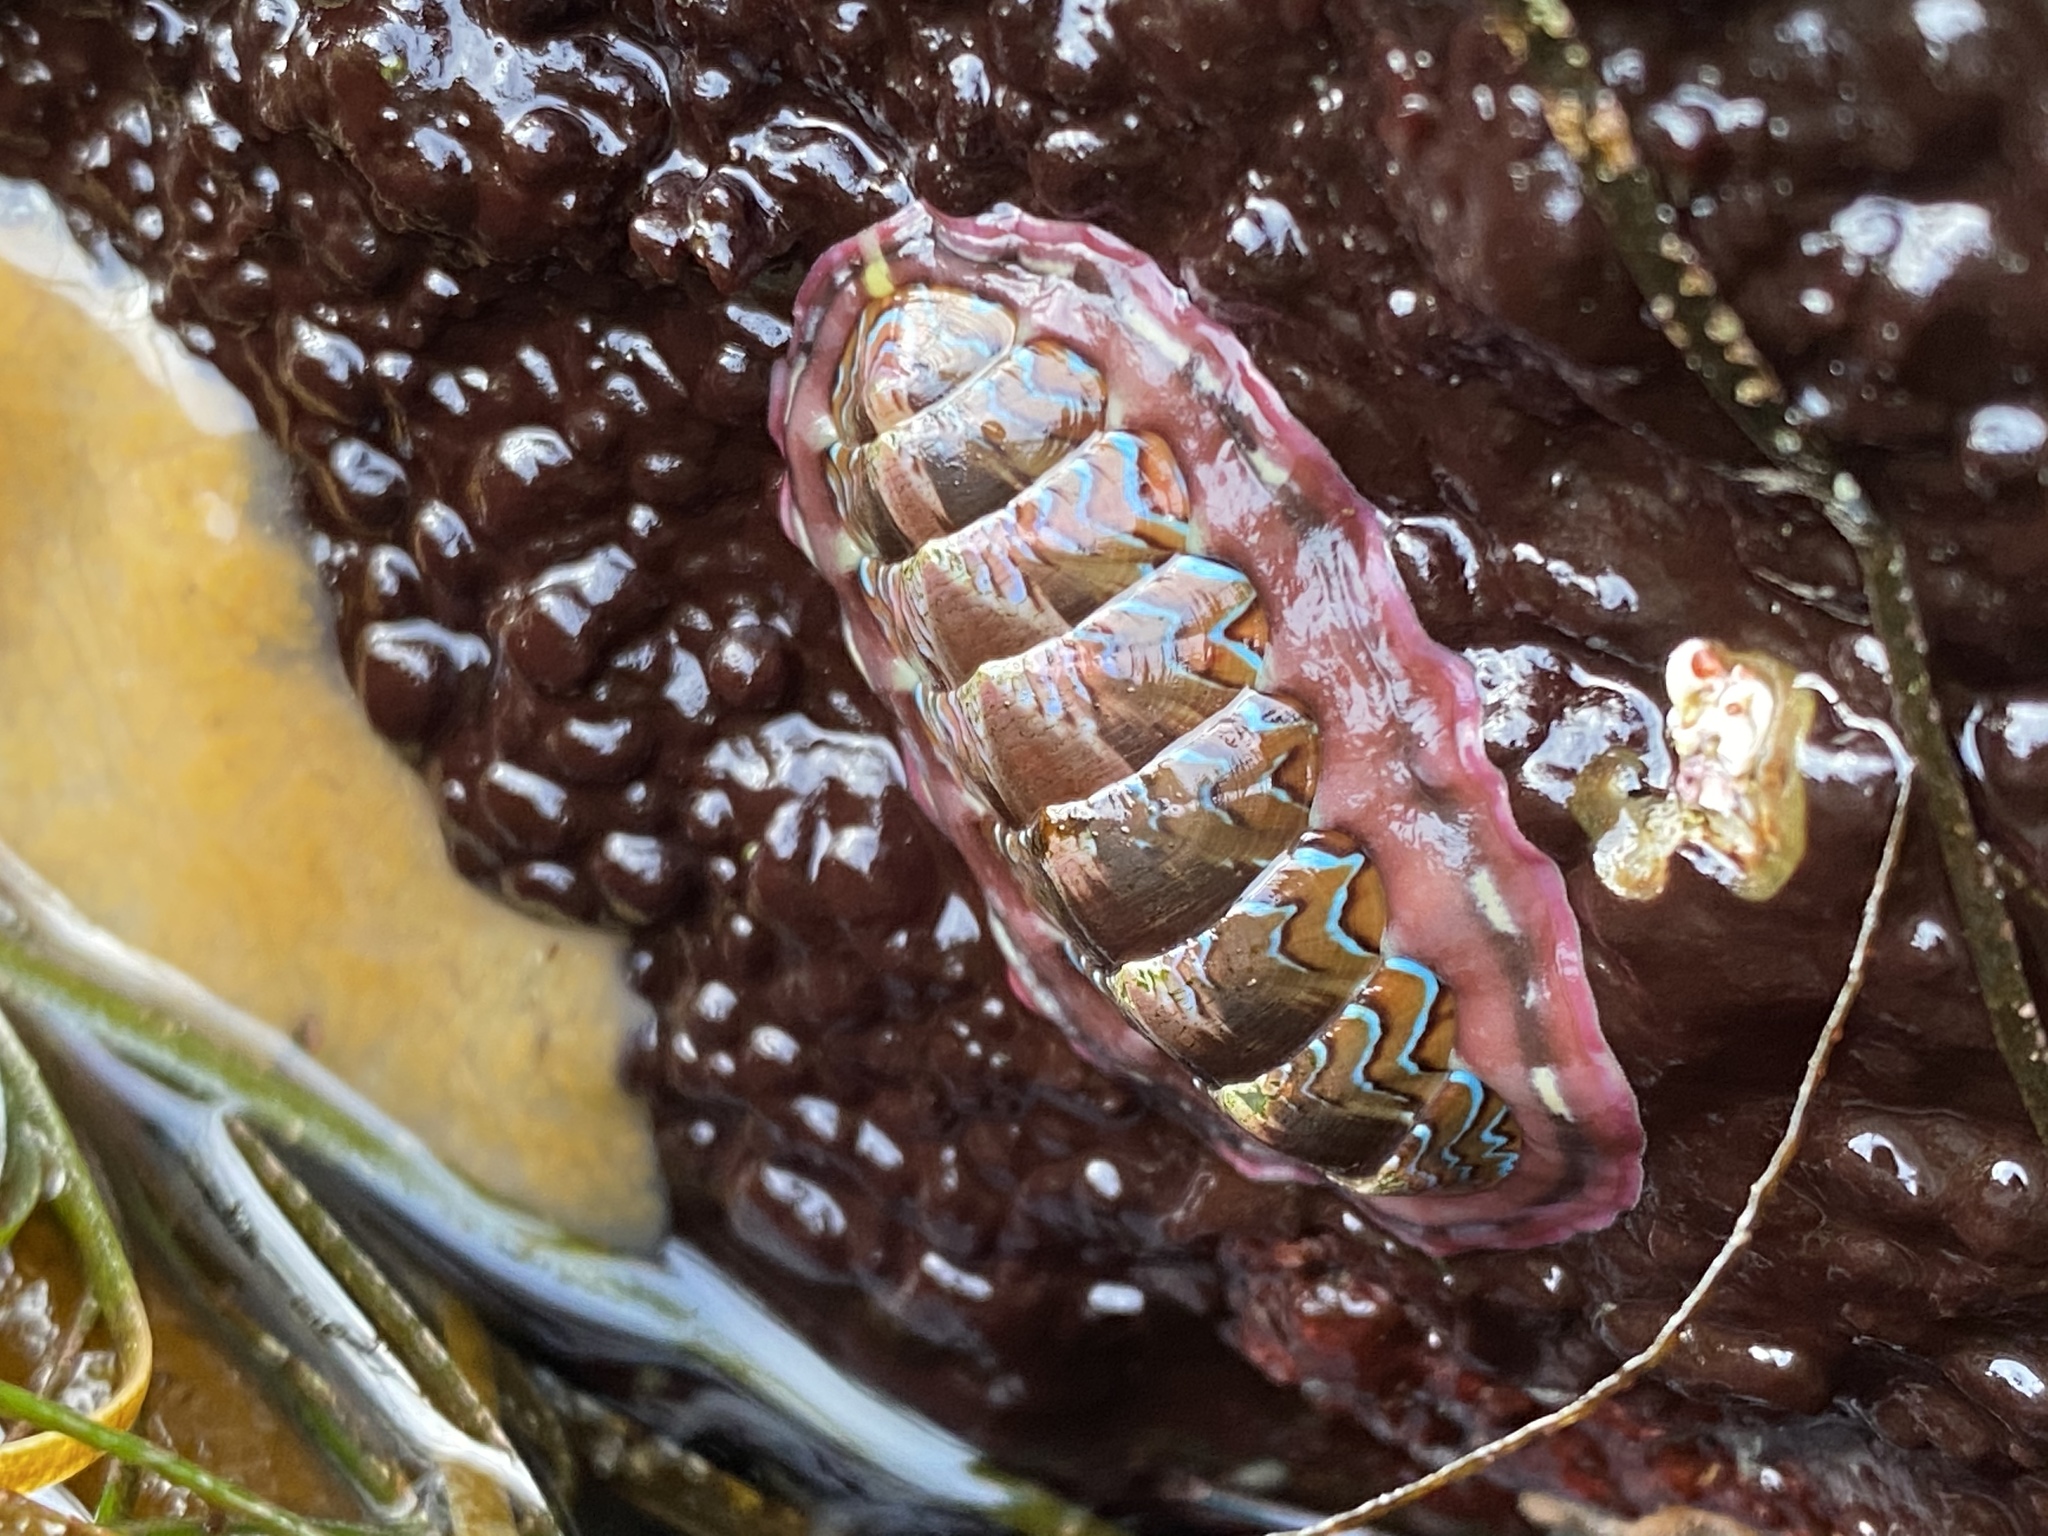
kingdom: Animalia
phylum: Mollusca
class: Polyplacophora
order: Chitonida
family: Tonicellidae
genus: Tonicella
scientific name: Tonicella lokii
